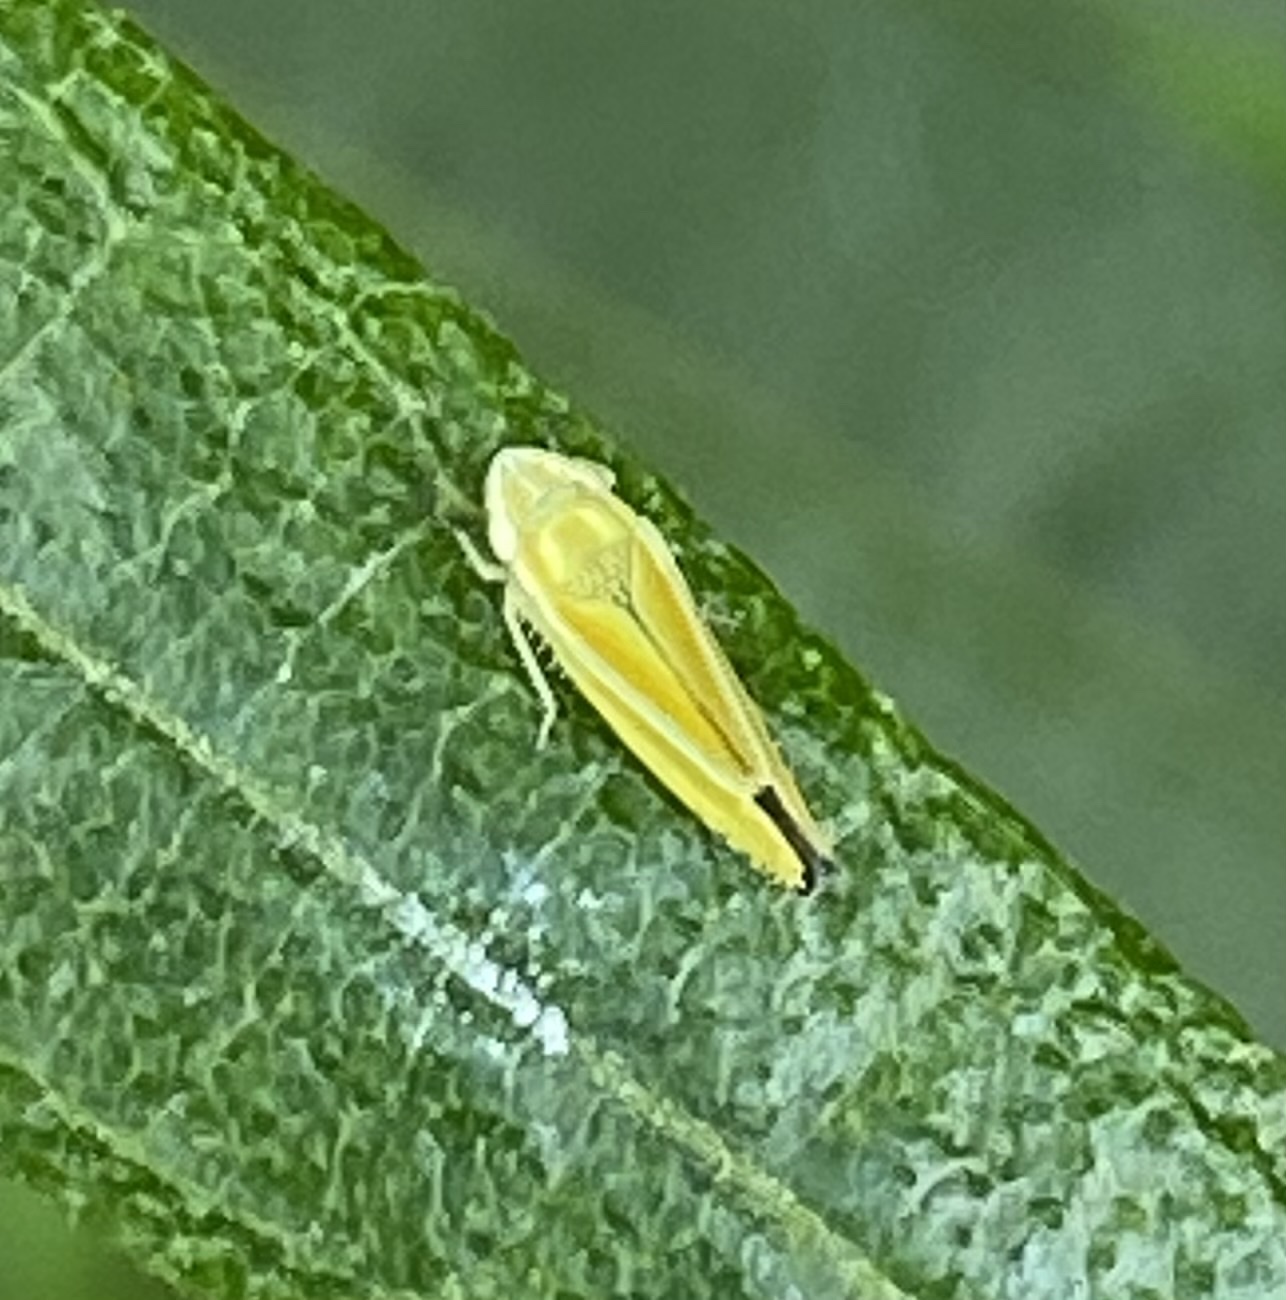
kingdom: Animalia
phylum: Arthropoda
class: Insecta
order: Hemiptera
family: Cicadellidae
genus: Graphocephala
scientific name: Graphocephala versuta
